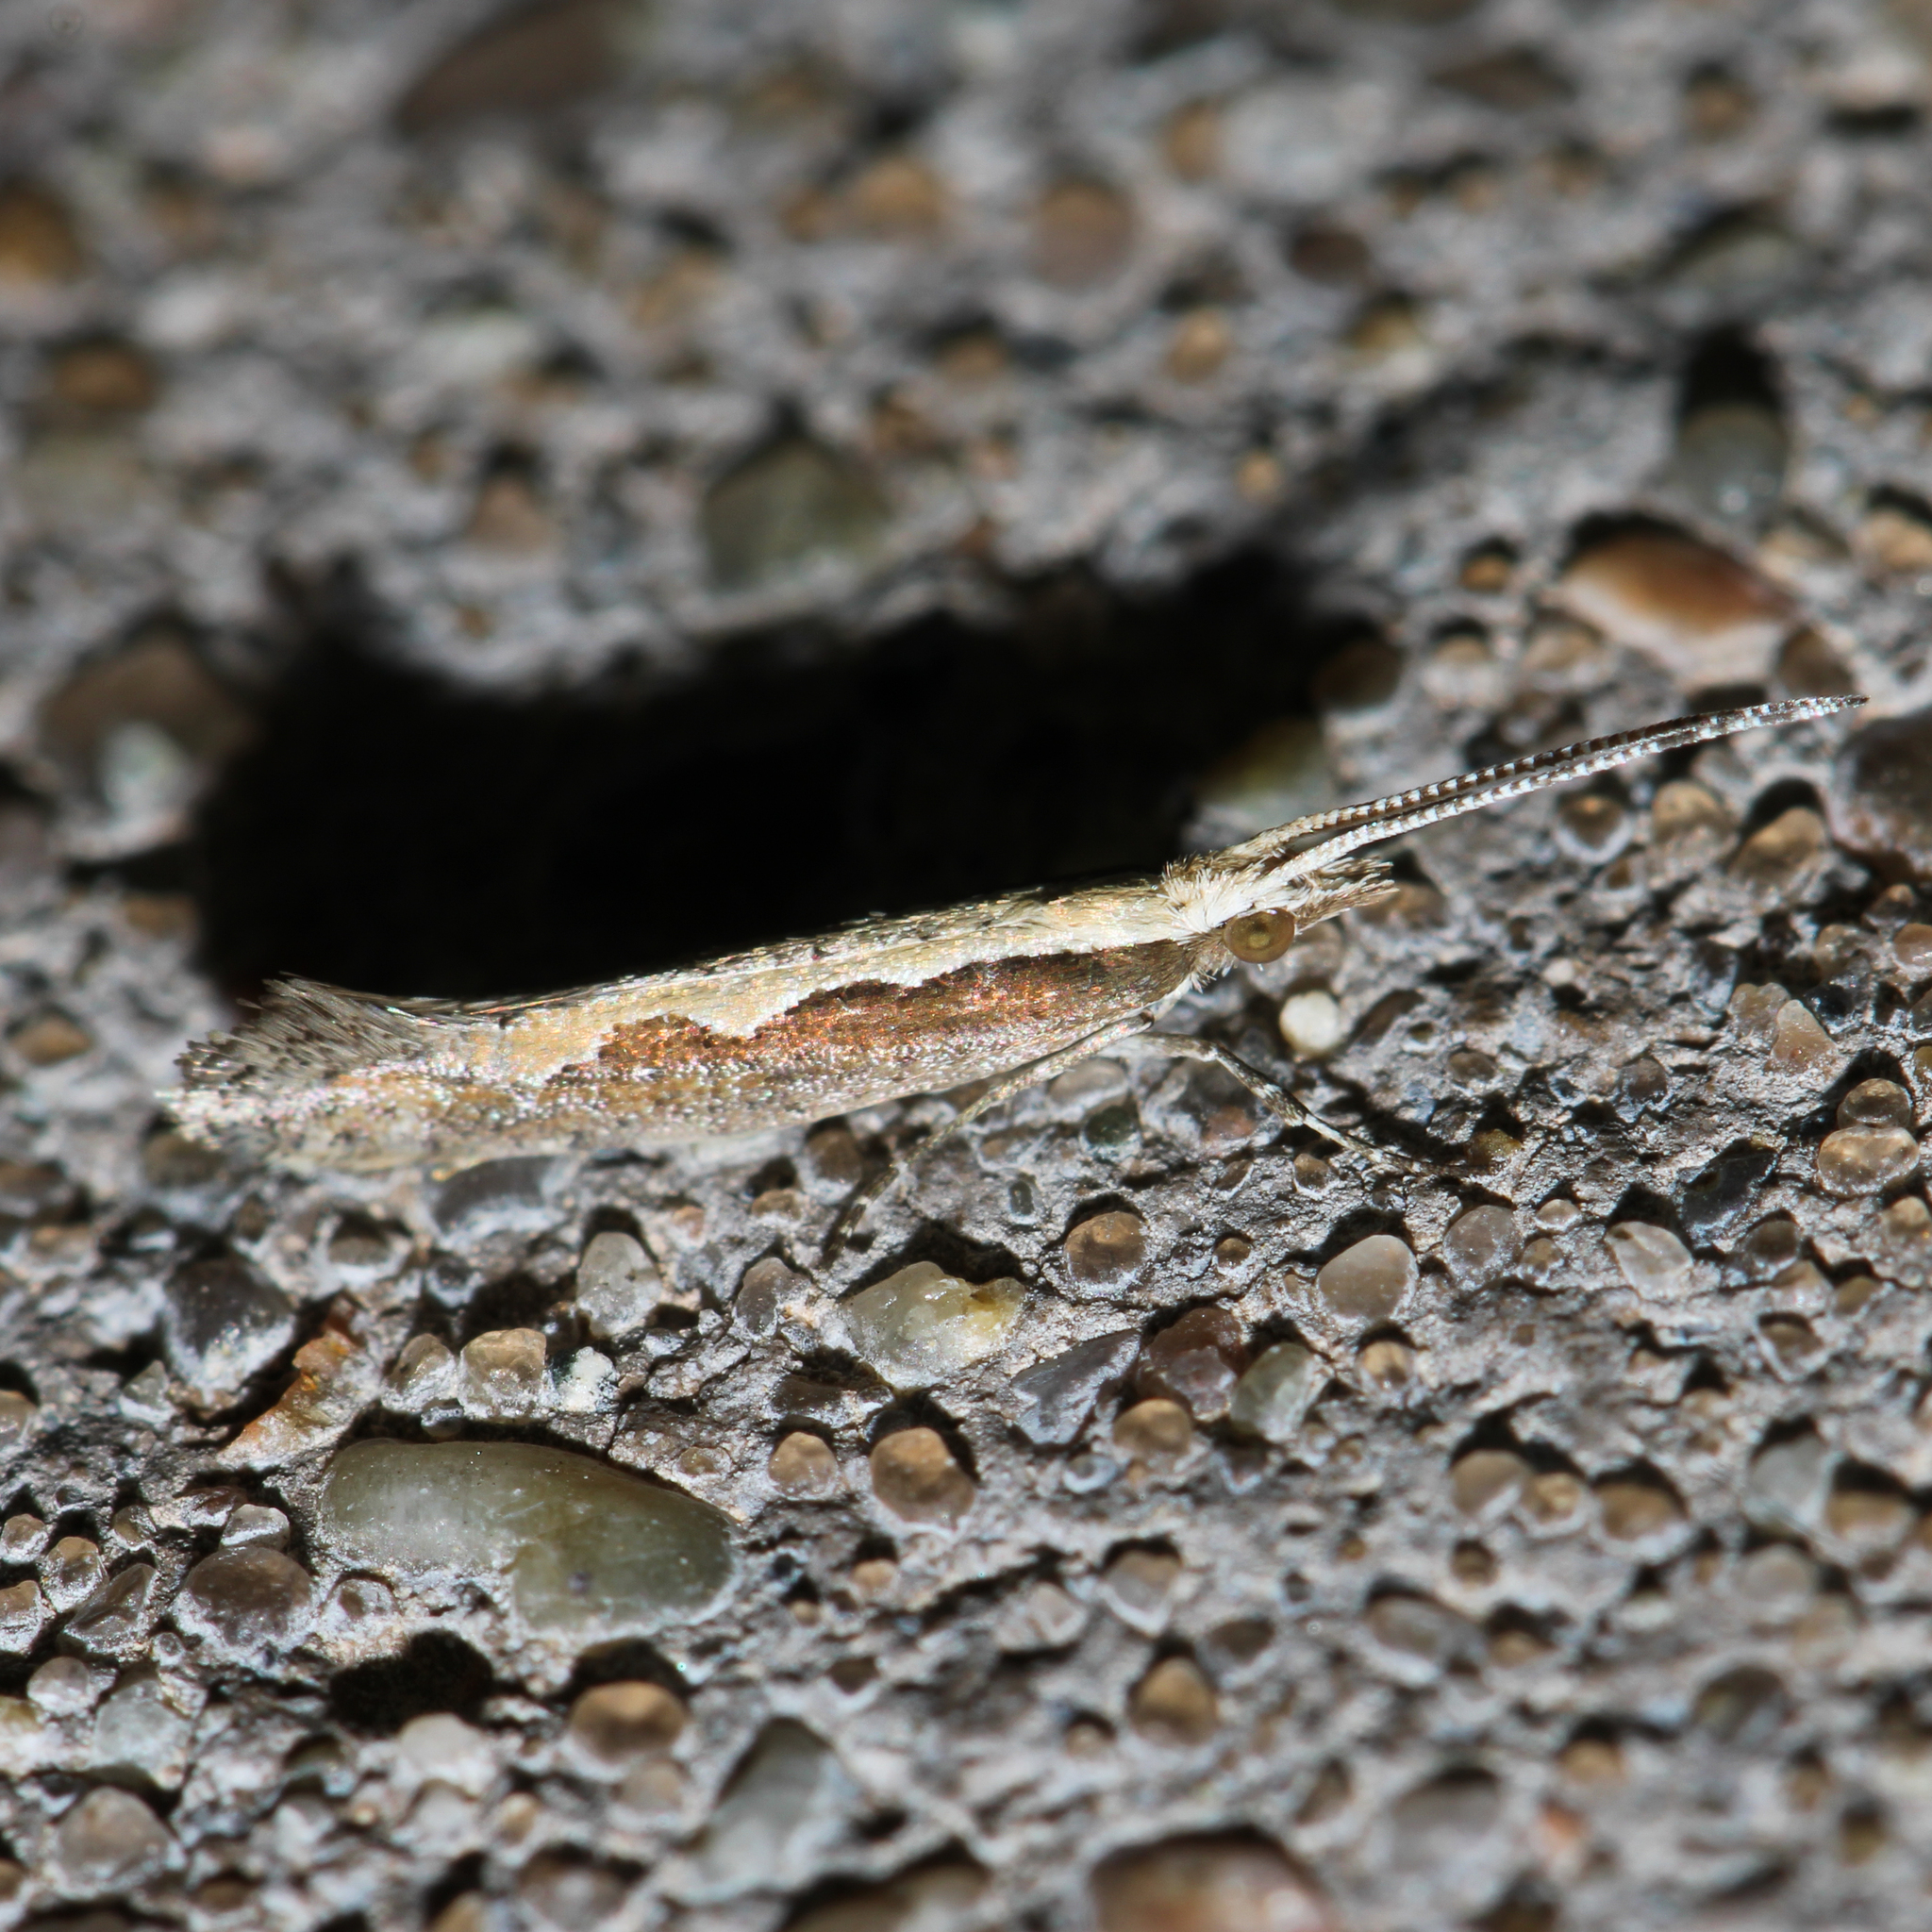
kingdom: Animalia
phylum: Arthropoda
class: Insecta
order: Lepidoptera
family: Plutellidae
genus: Plutella
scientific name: Plutella xylostella
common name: Diamond-back moth
